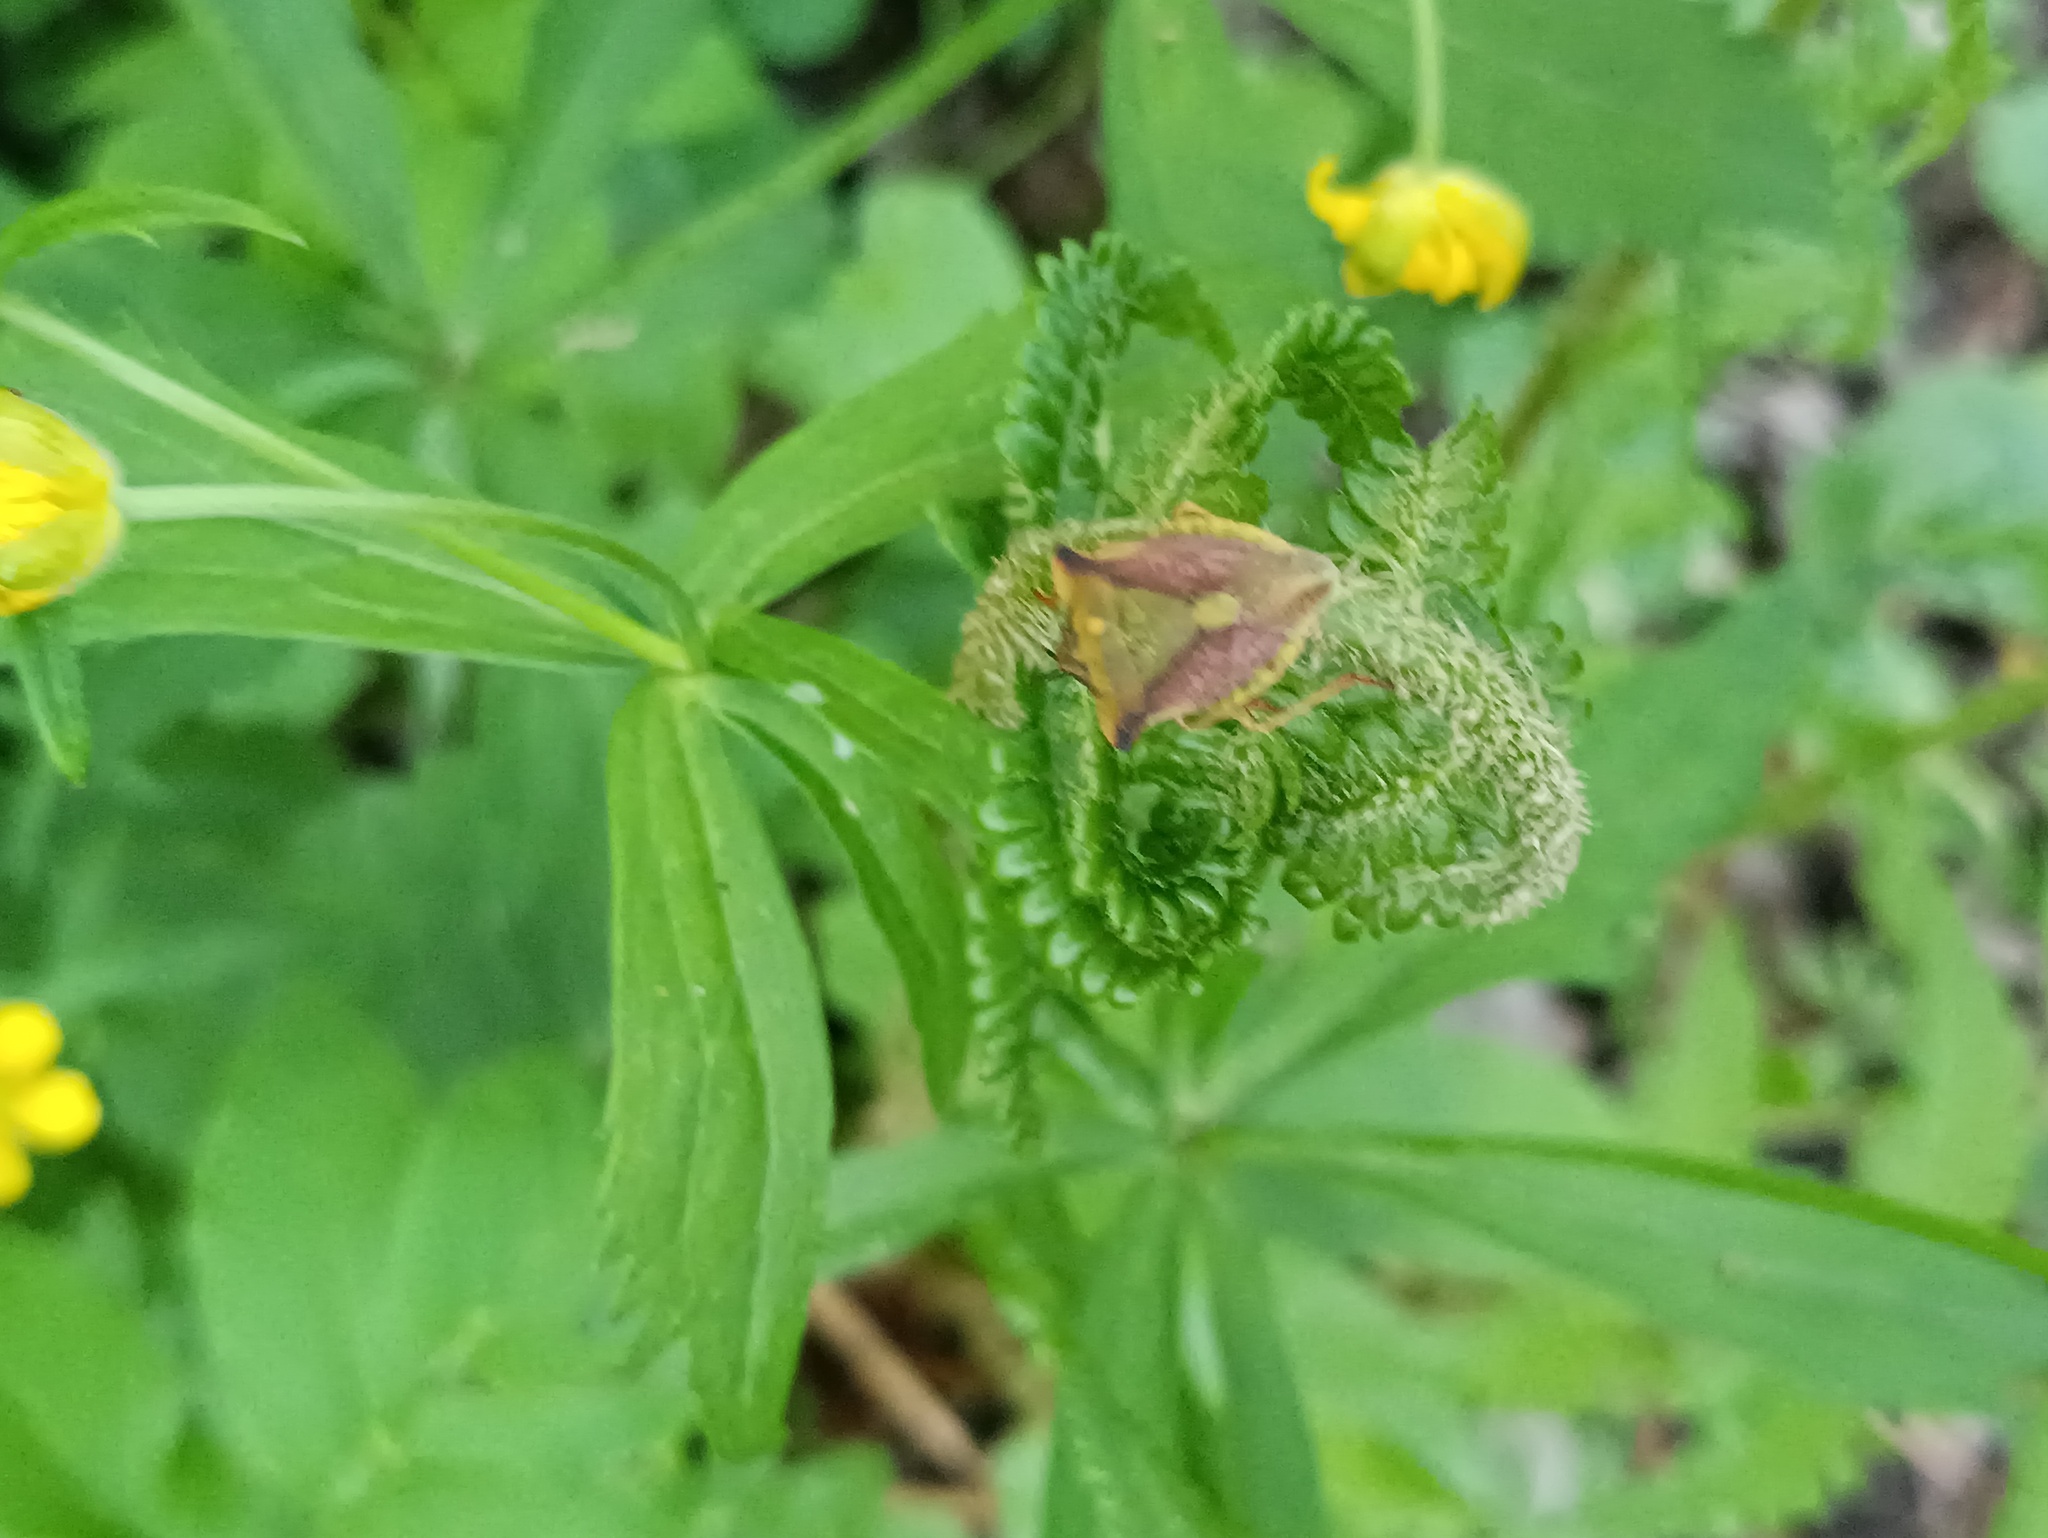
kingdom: Animalia
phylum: Arthropoda
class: Insecta
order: Hemiptera
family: Pentatomidae
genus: Carpocoris
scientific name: Carpocoris fuscispinus
